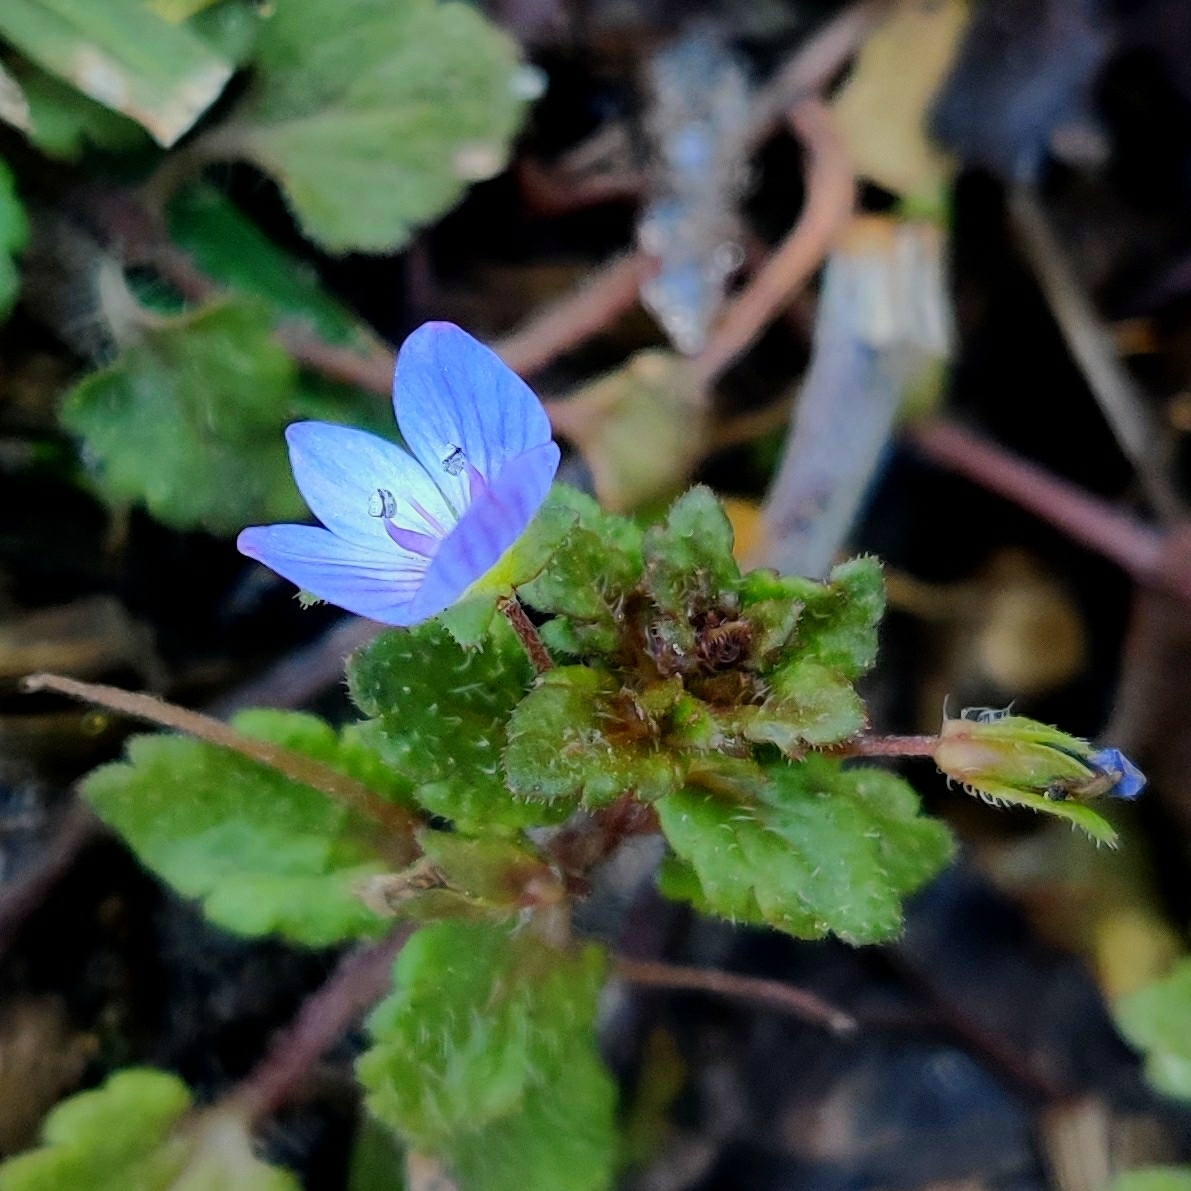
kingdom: Plantae
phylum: Tracheophyta
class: Magnoliopsida
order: Lamiales
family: Plantaginaceae
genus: Veronica
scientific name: Veronica persica
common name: Common field-speedwell
